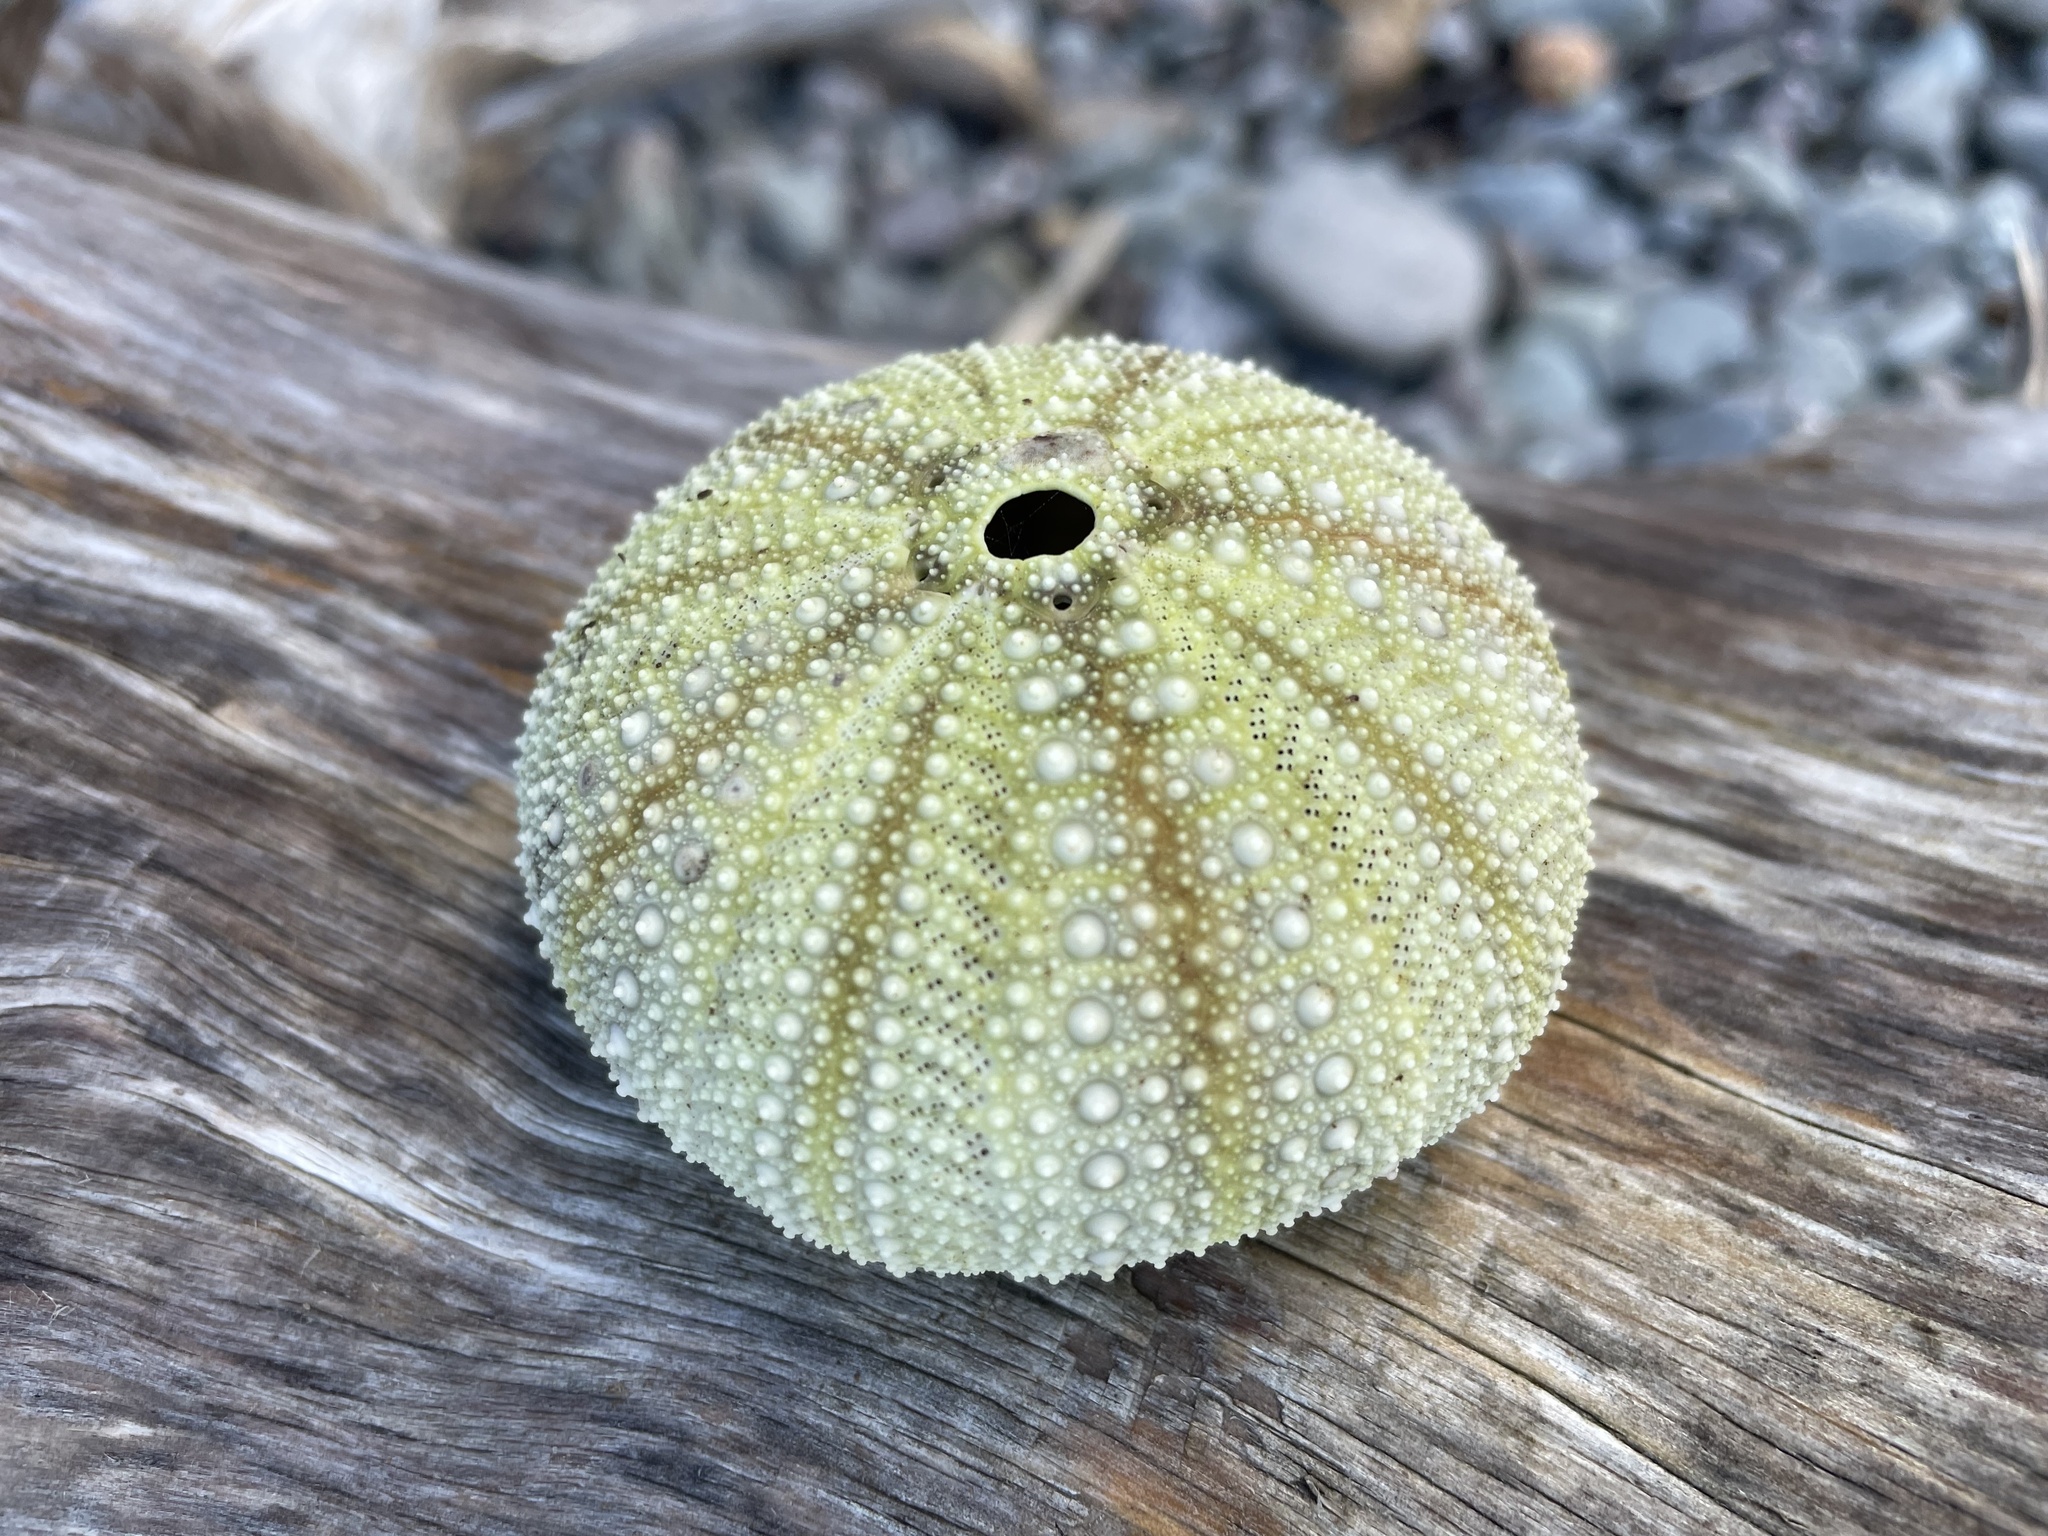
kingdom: Animalia
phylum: Echinodermata
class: Echinoidea
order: Camarodonta
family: Strongylocentrotidae
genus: Strongylocentrotus
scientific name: Strongylocentrotus droebachiensis
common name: Northern sea urchin
